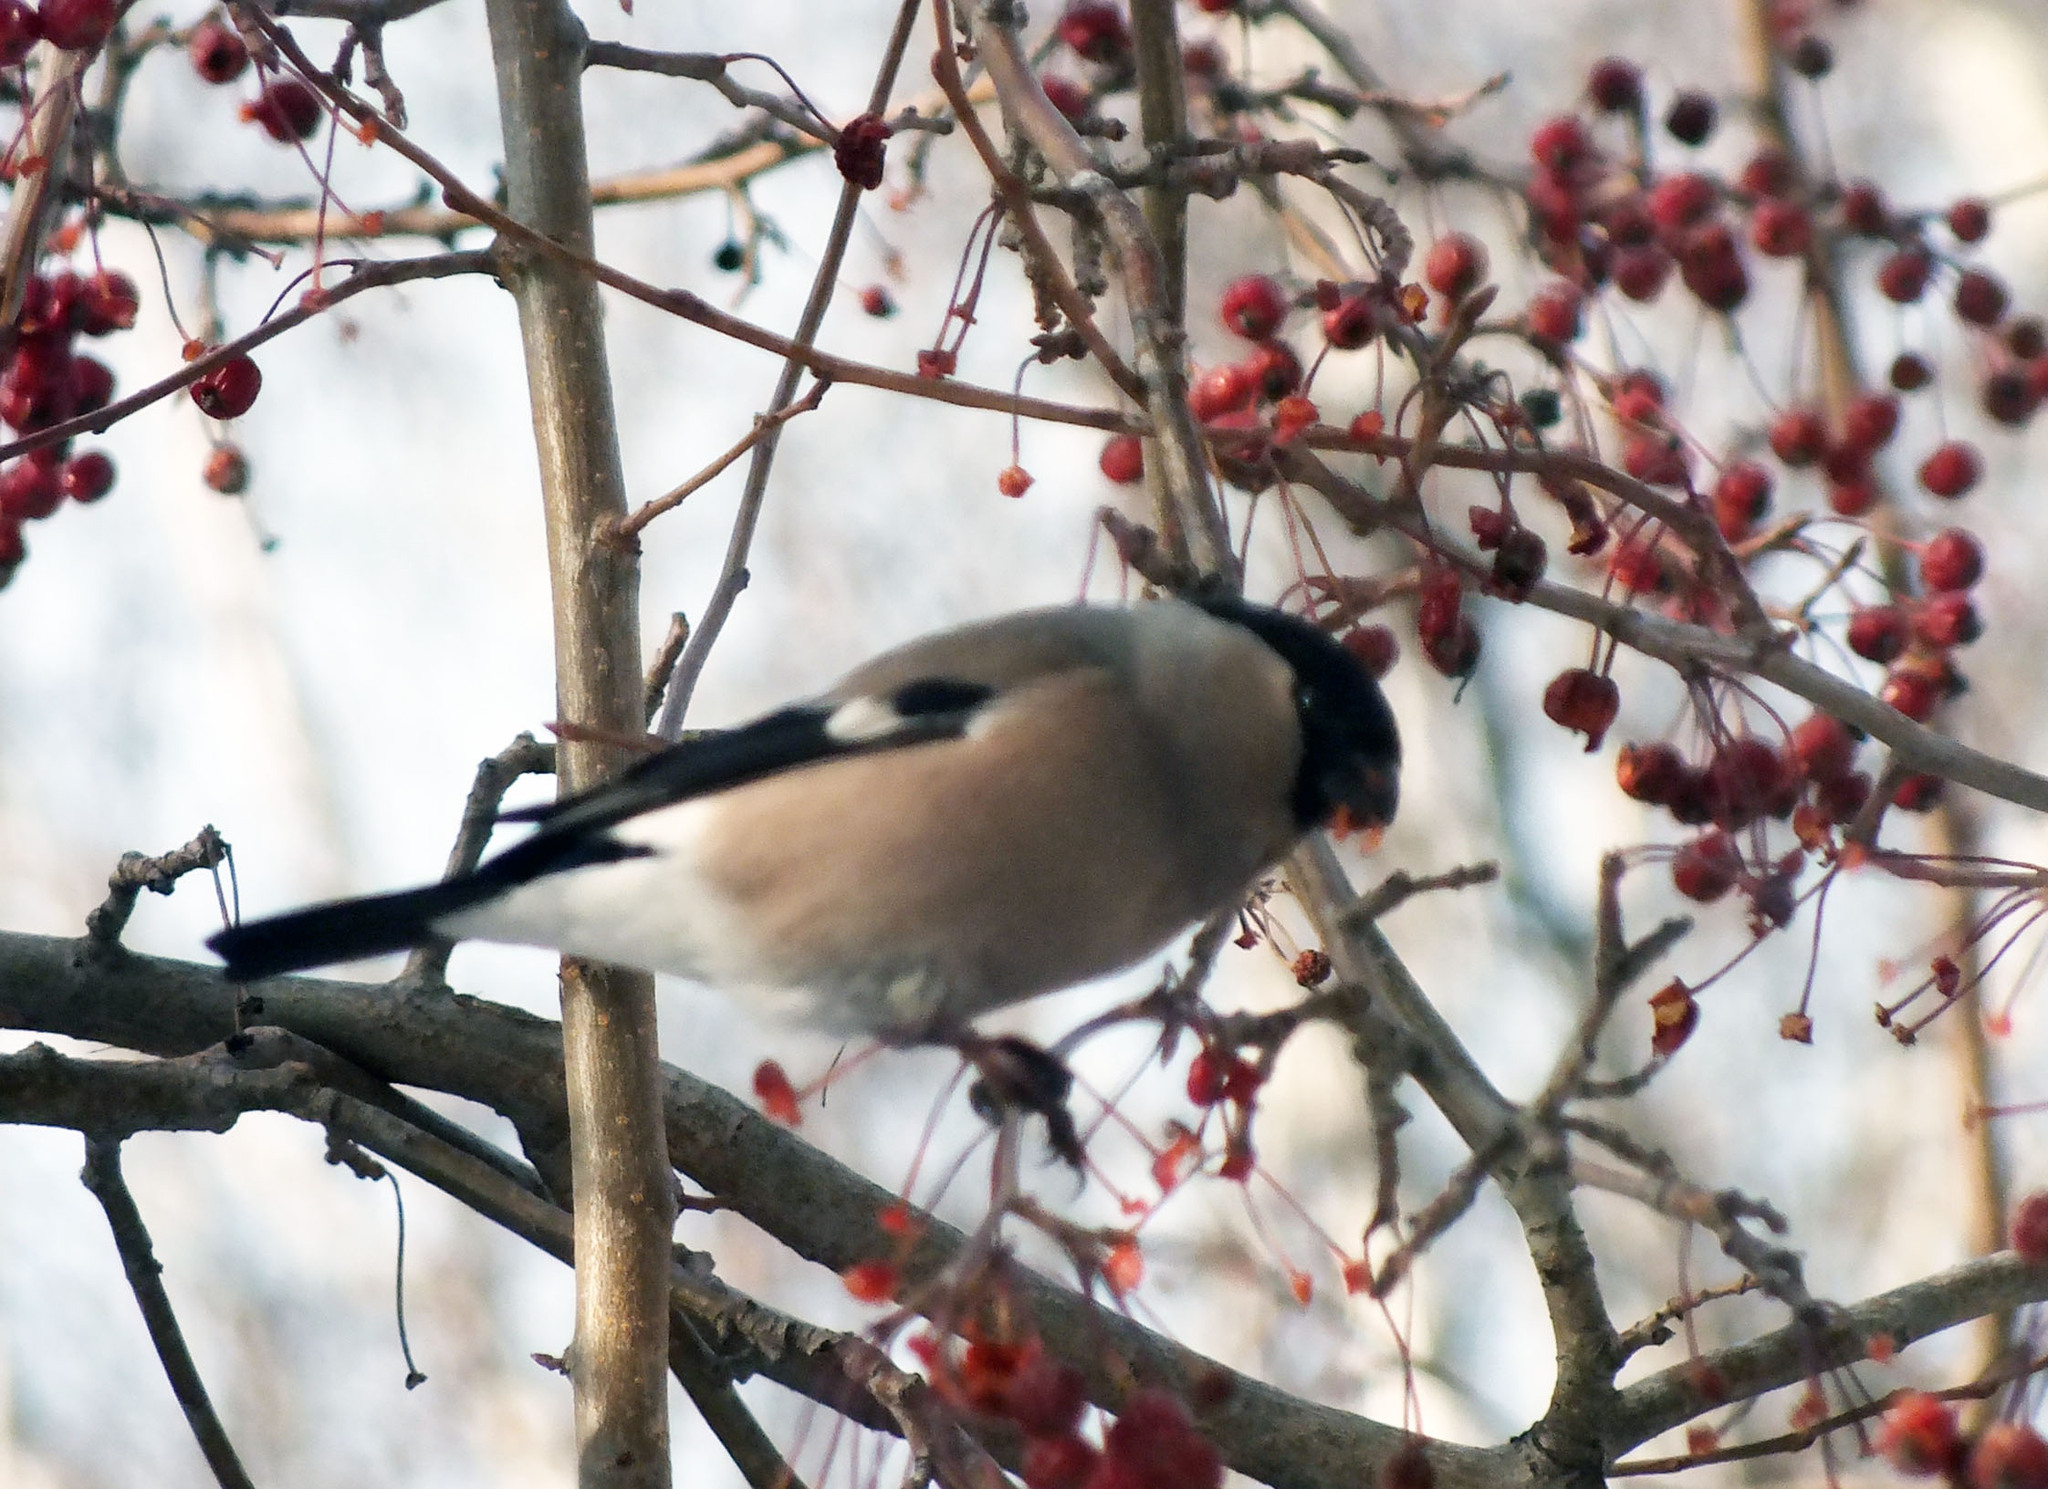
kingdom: Animalia
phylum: Chordata
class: Aves
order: Passeriformes
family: Fringillidae
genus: Pyrrhula
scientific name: Pyrrhula pyrrhula
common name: Eurasian bullfinch
